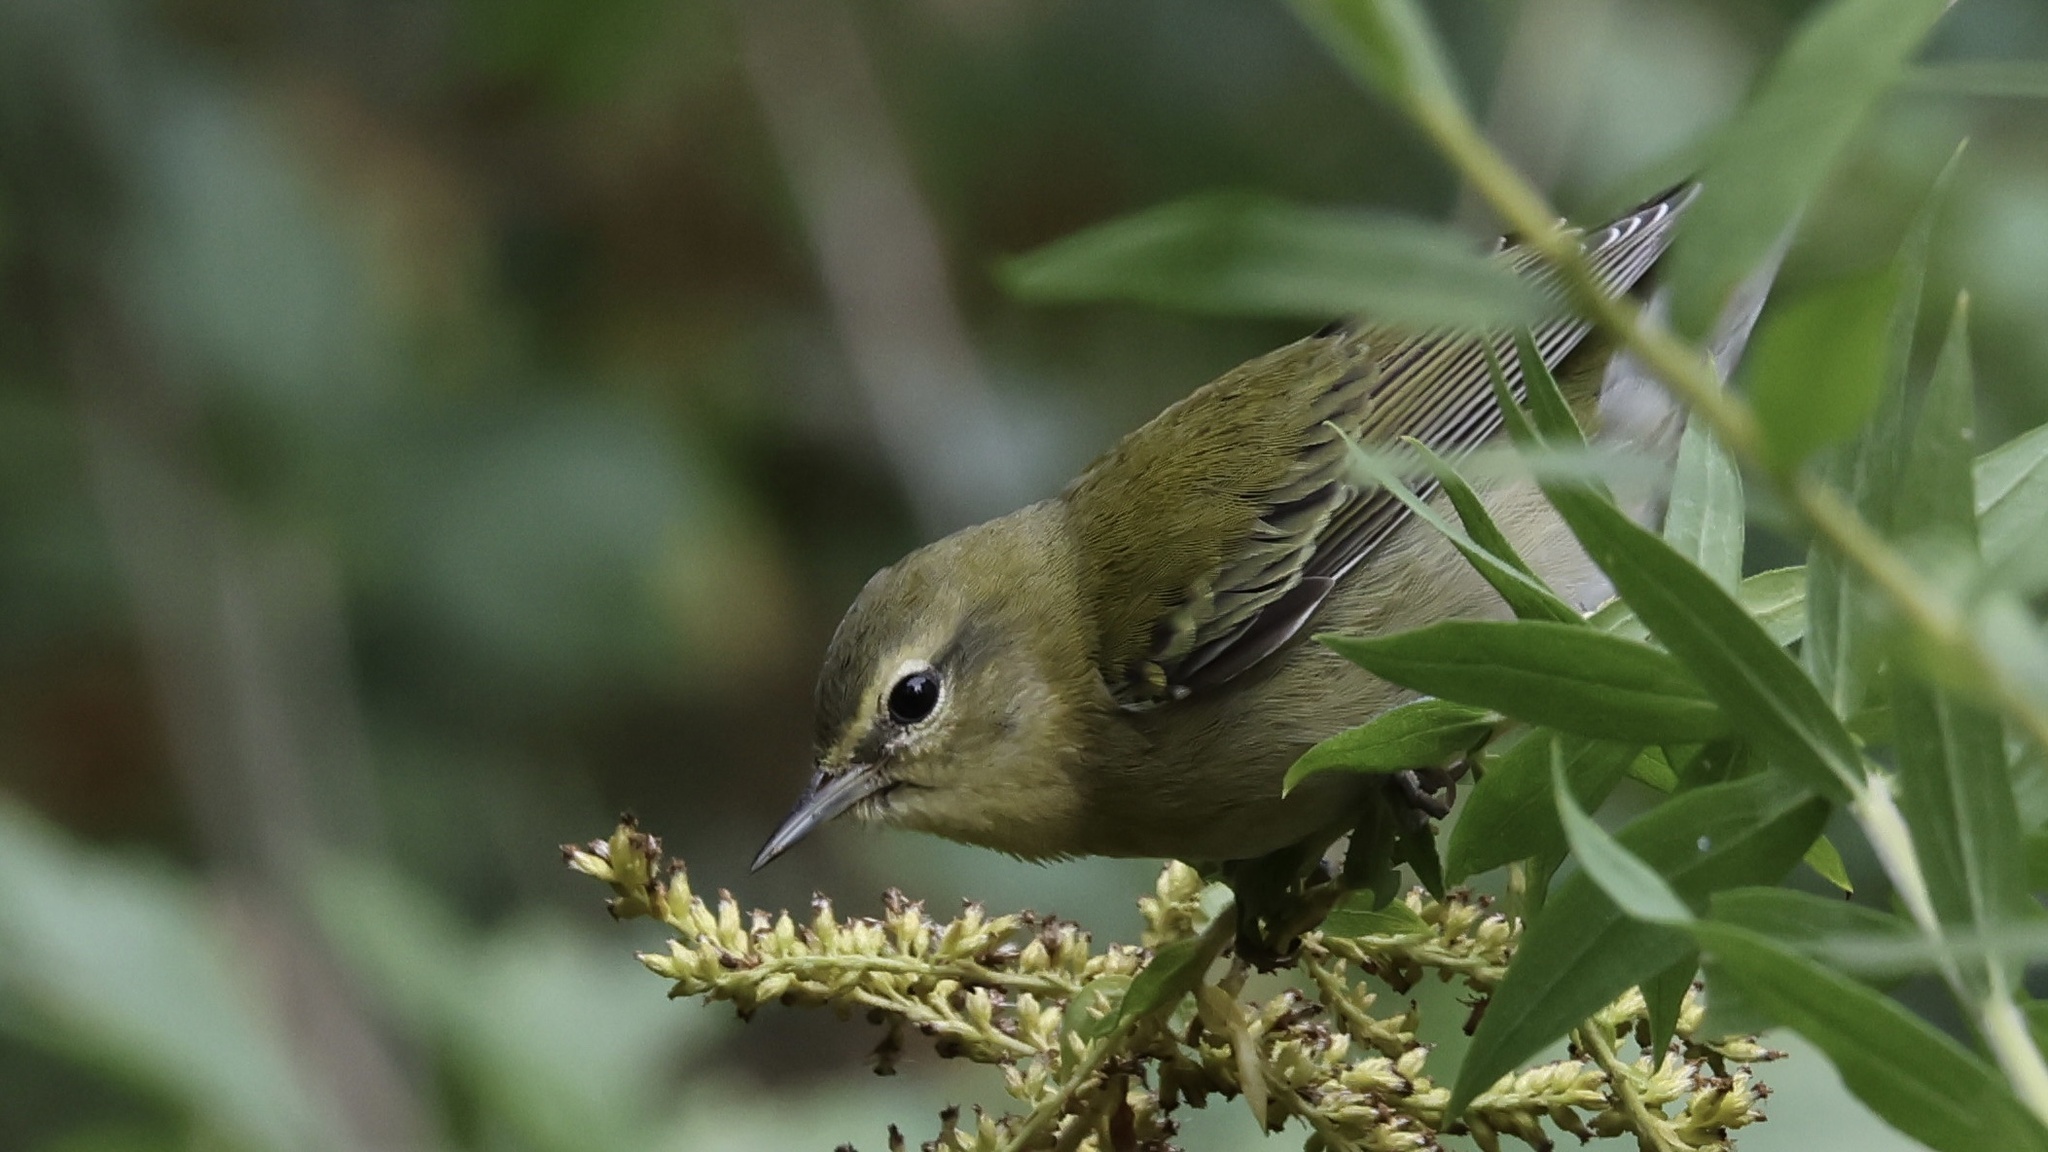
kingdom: Animalia
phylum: Chordata
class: Aves
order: Passeriformes
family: Parulidae
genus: Leiothlypis
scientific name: Leiothlypis peregrina
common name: Tennessee warbler
